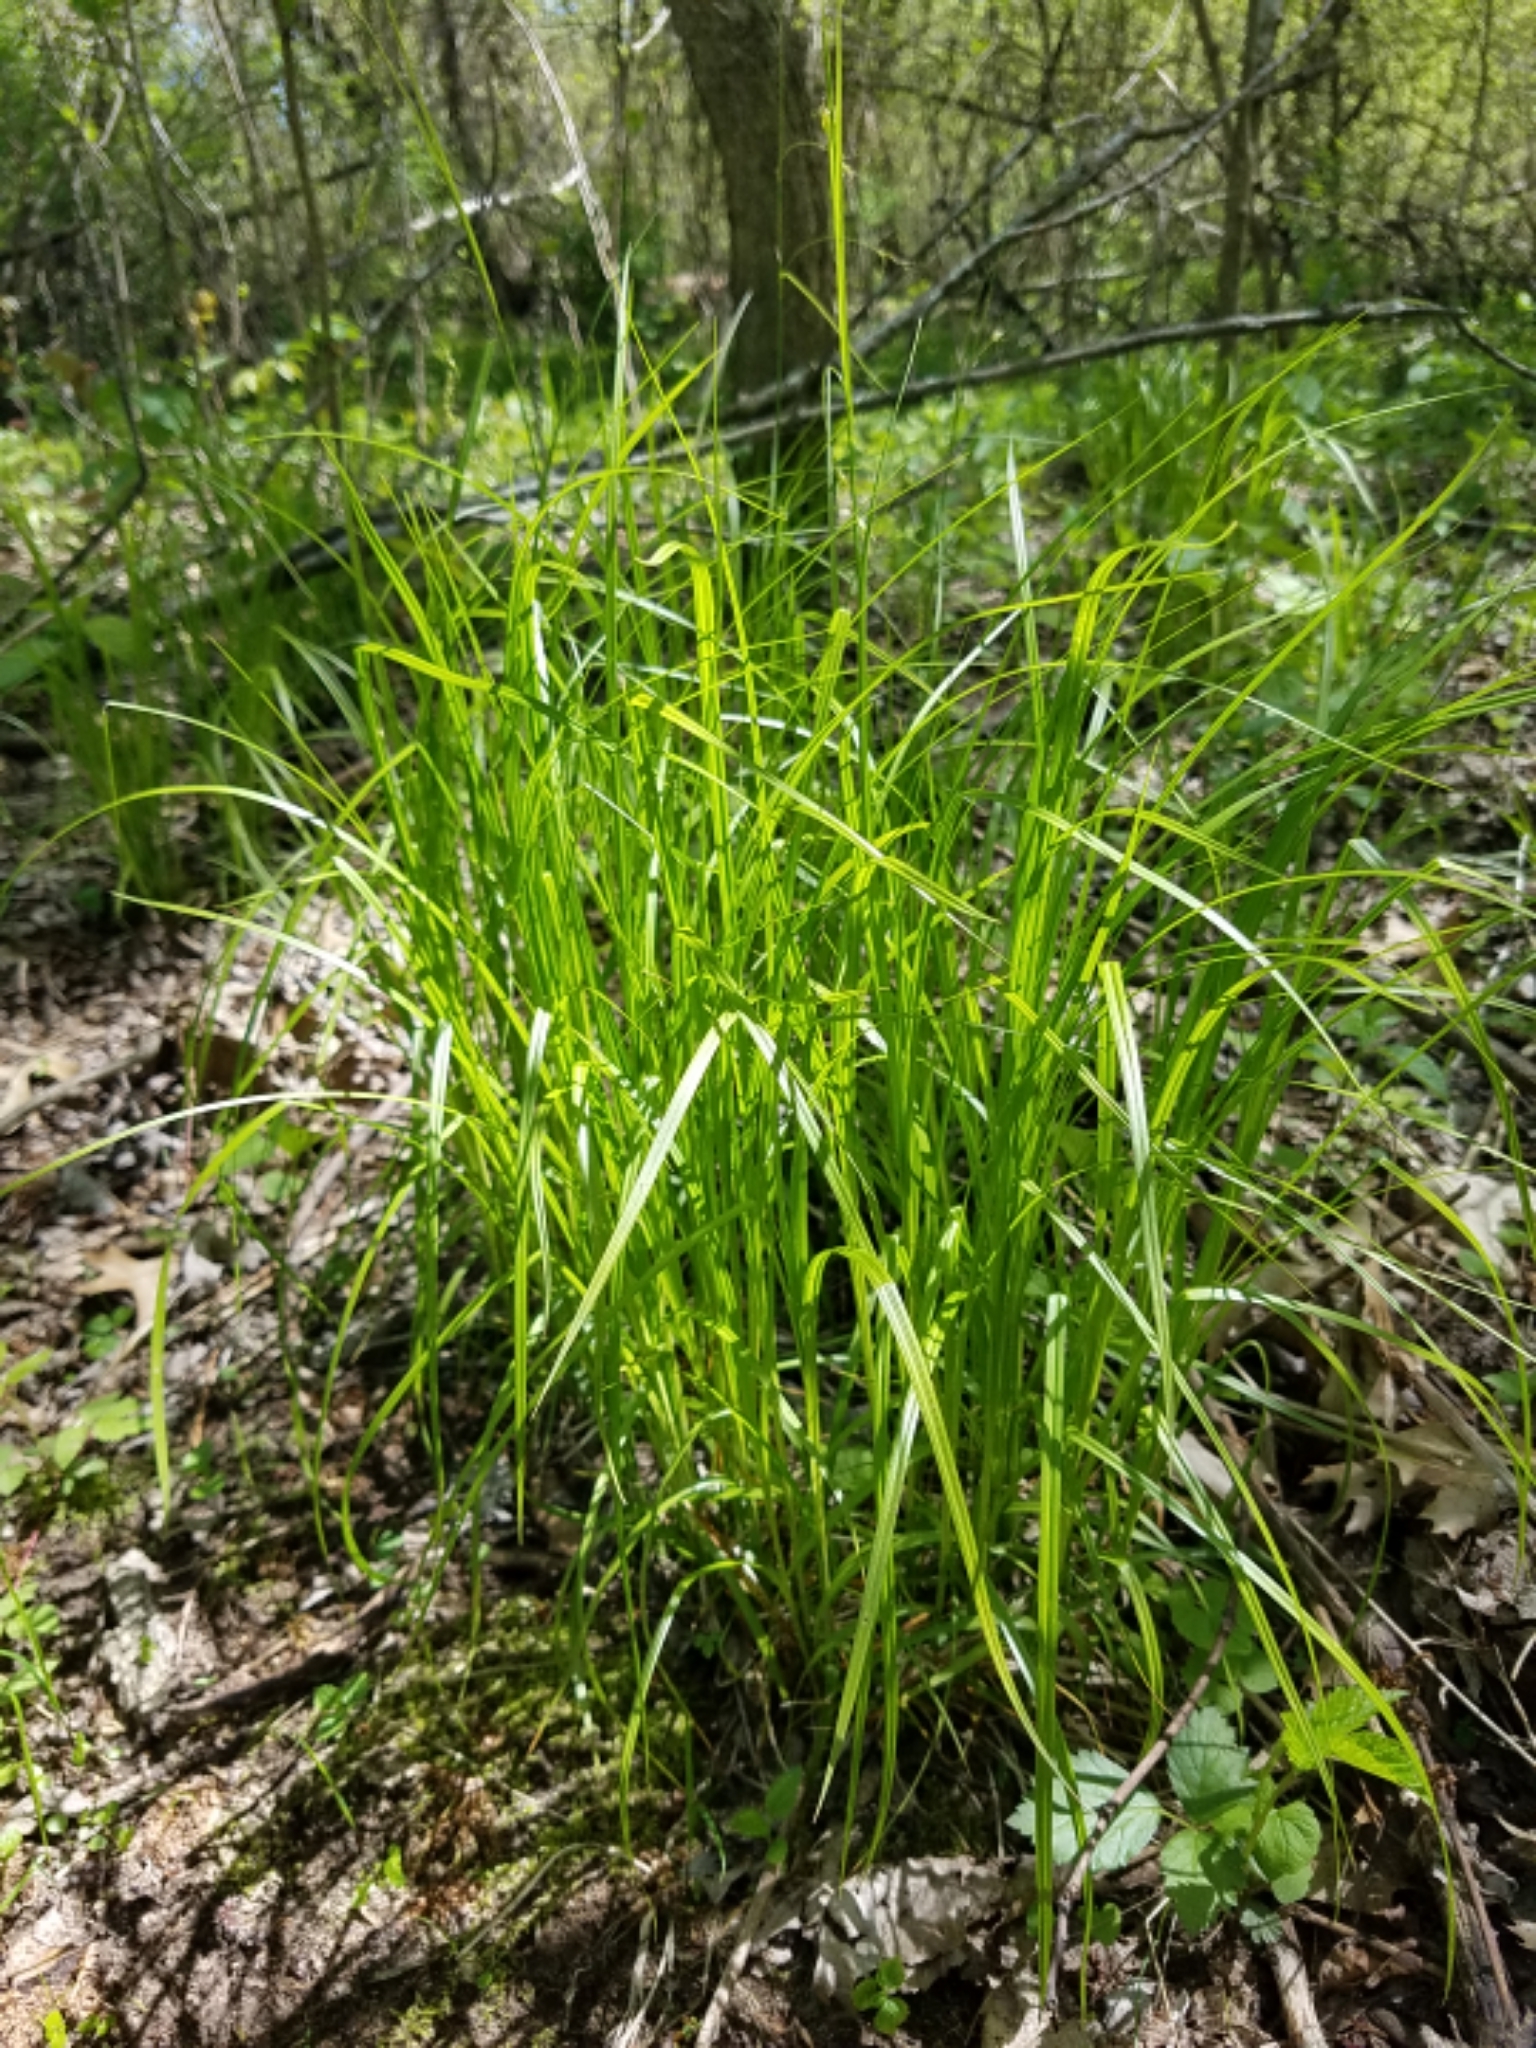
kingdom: Plantae
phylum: Tracheophyta
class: Liliopsida
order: Poales
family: Cyperaceae
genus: Carex
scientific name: Carex sprengelii
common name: Long-beaked sedge
